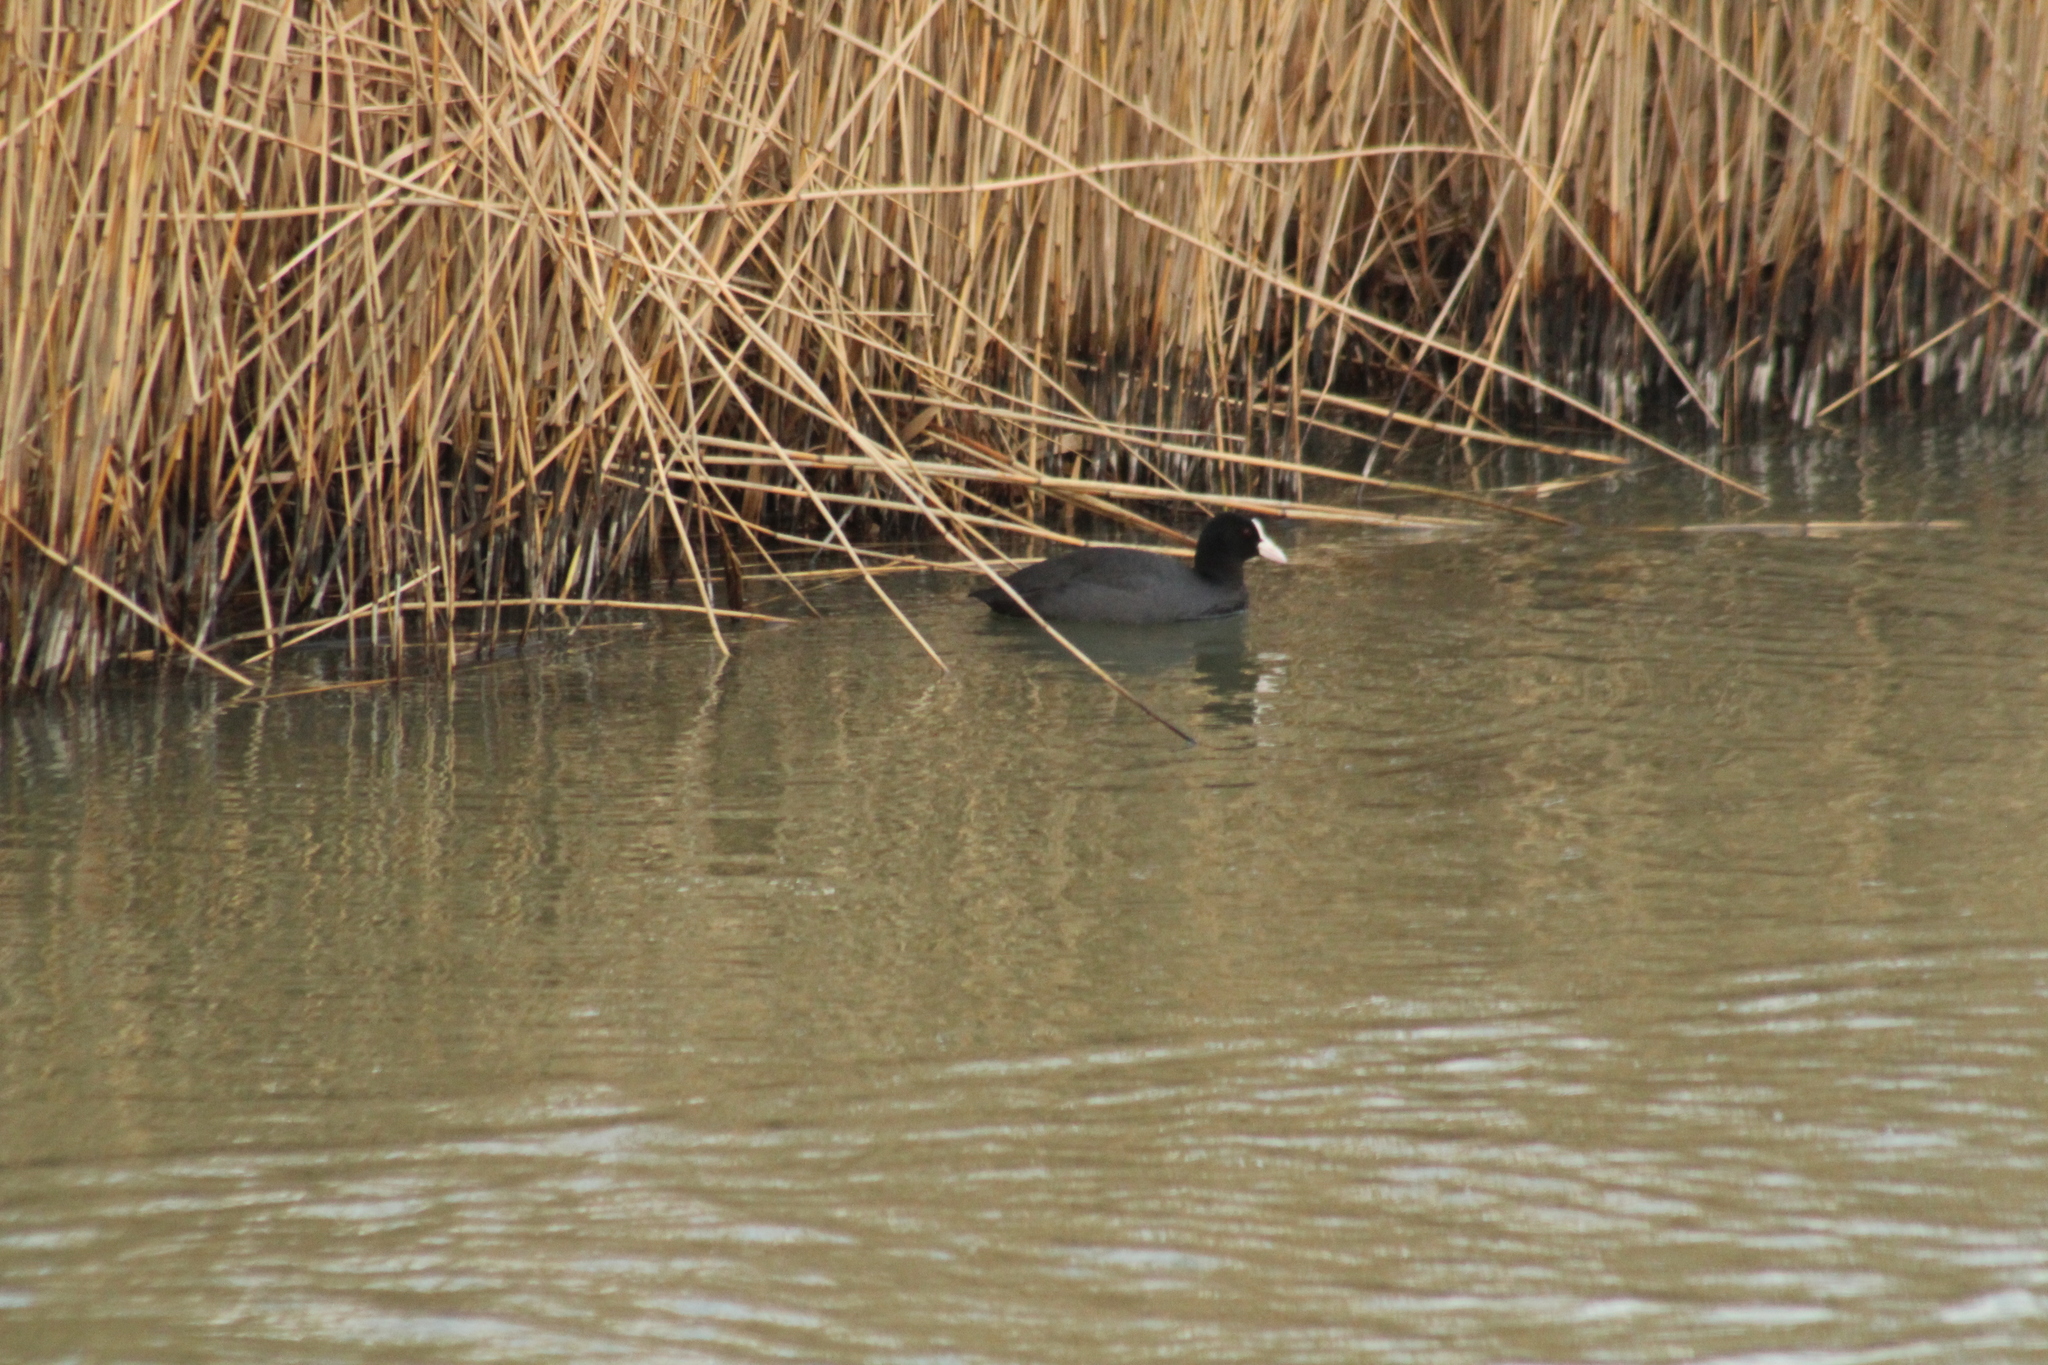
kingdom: Animalia
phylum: Chordata
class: Aves
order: Gruiformes
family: Rallidae
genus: Fulica
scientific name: Fulica atra
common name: Eurasian coot
